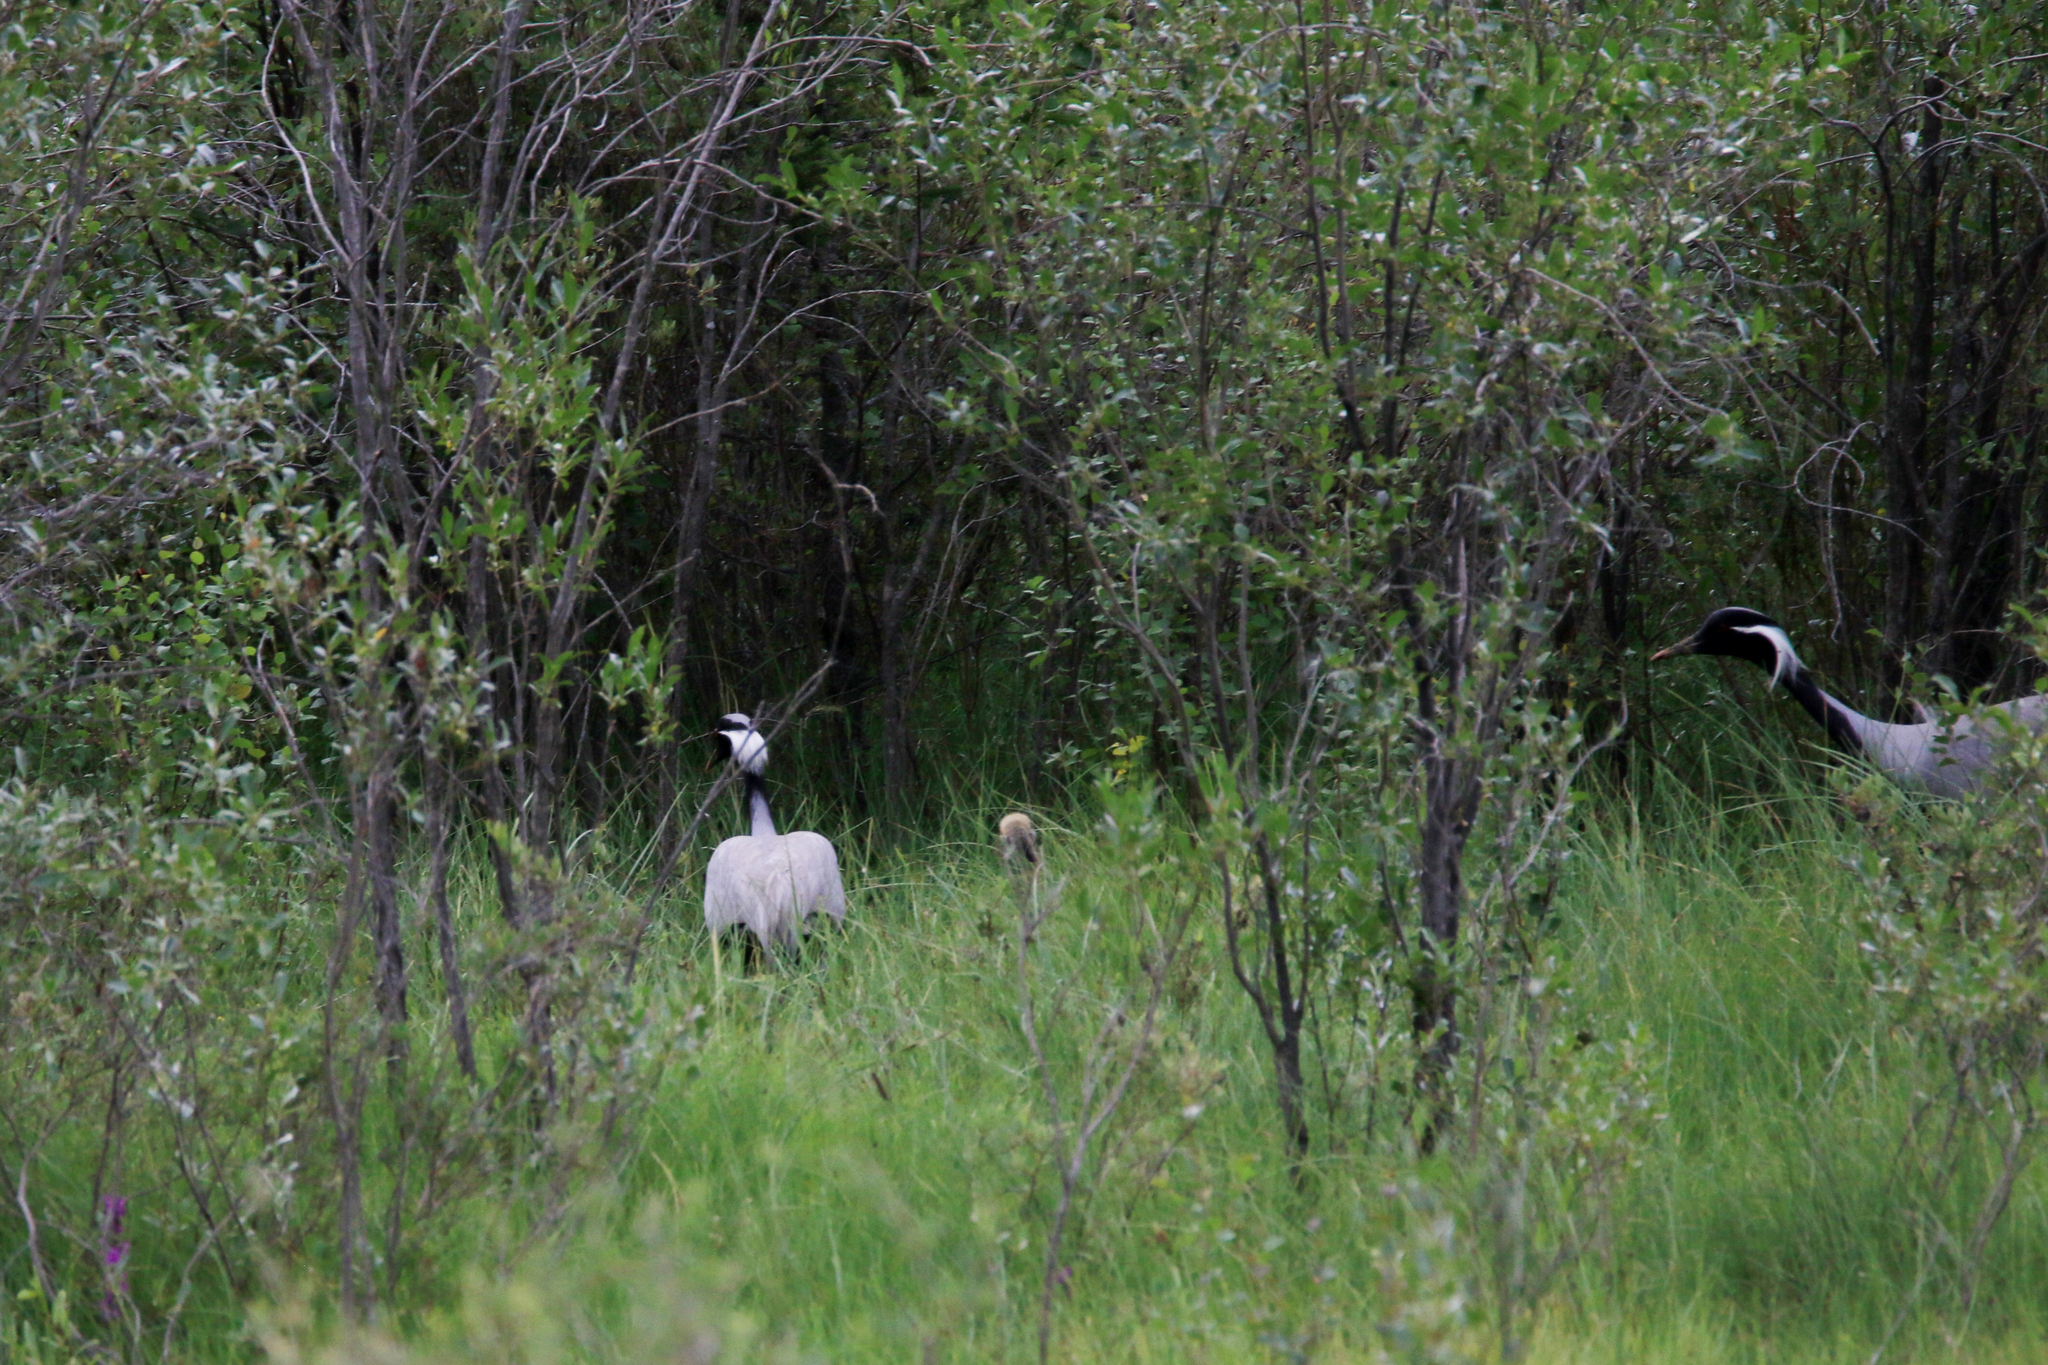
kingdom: Animalia
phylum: Chordata
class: Aves
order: Gruiformes
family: Gruidae
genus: Anthropoides
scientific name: Anthropoides virgo
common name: Demoiselle crane
